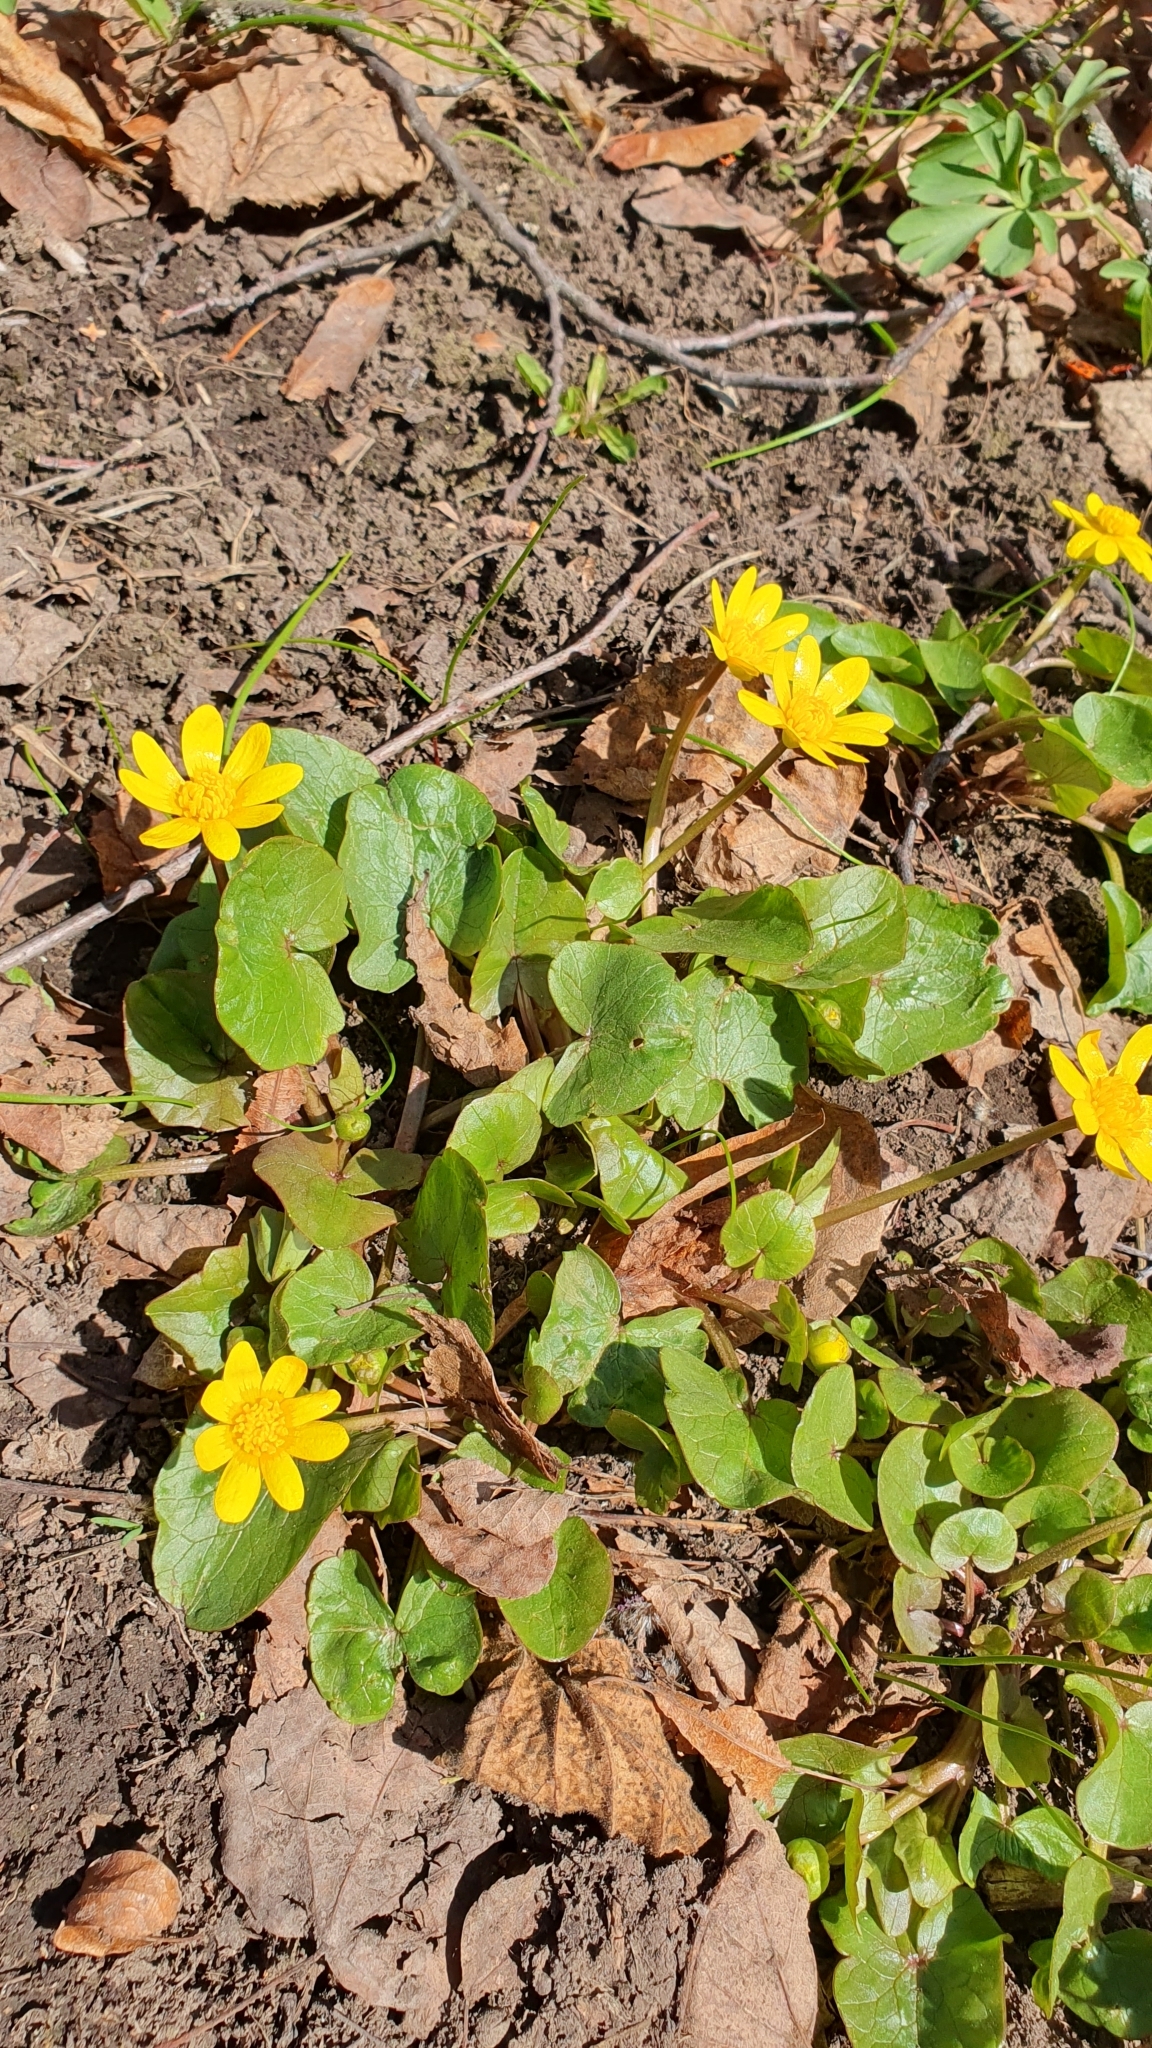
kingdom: Plantae
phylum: Tracheophyta
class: Magnoliopsida
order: Ranunculales
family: Ranunculaceae
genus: Ficaria
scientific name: Ficaria verna
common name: Lesser celandine
